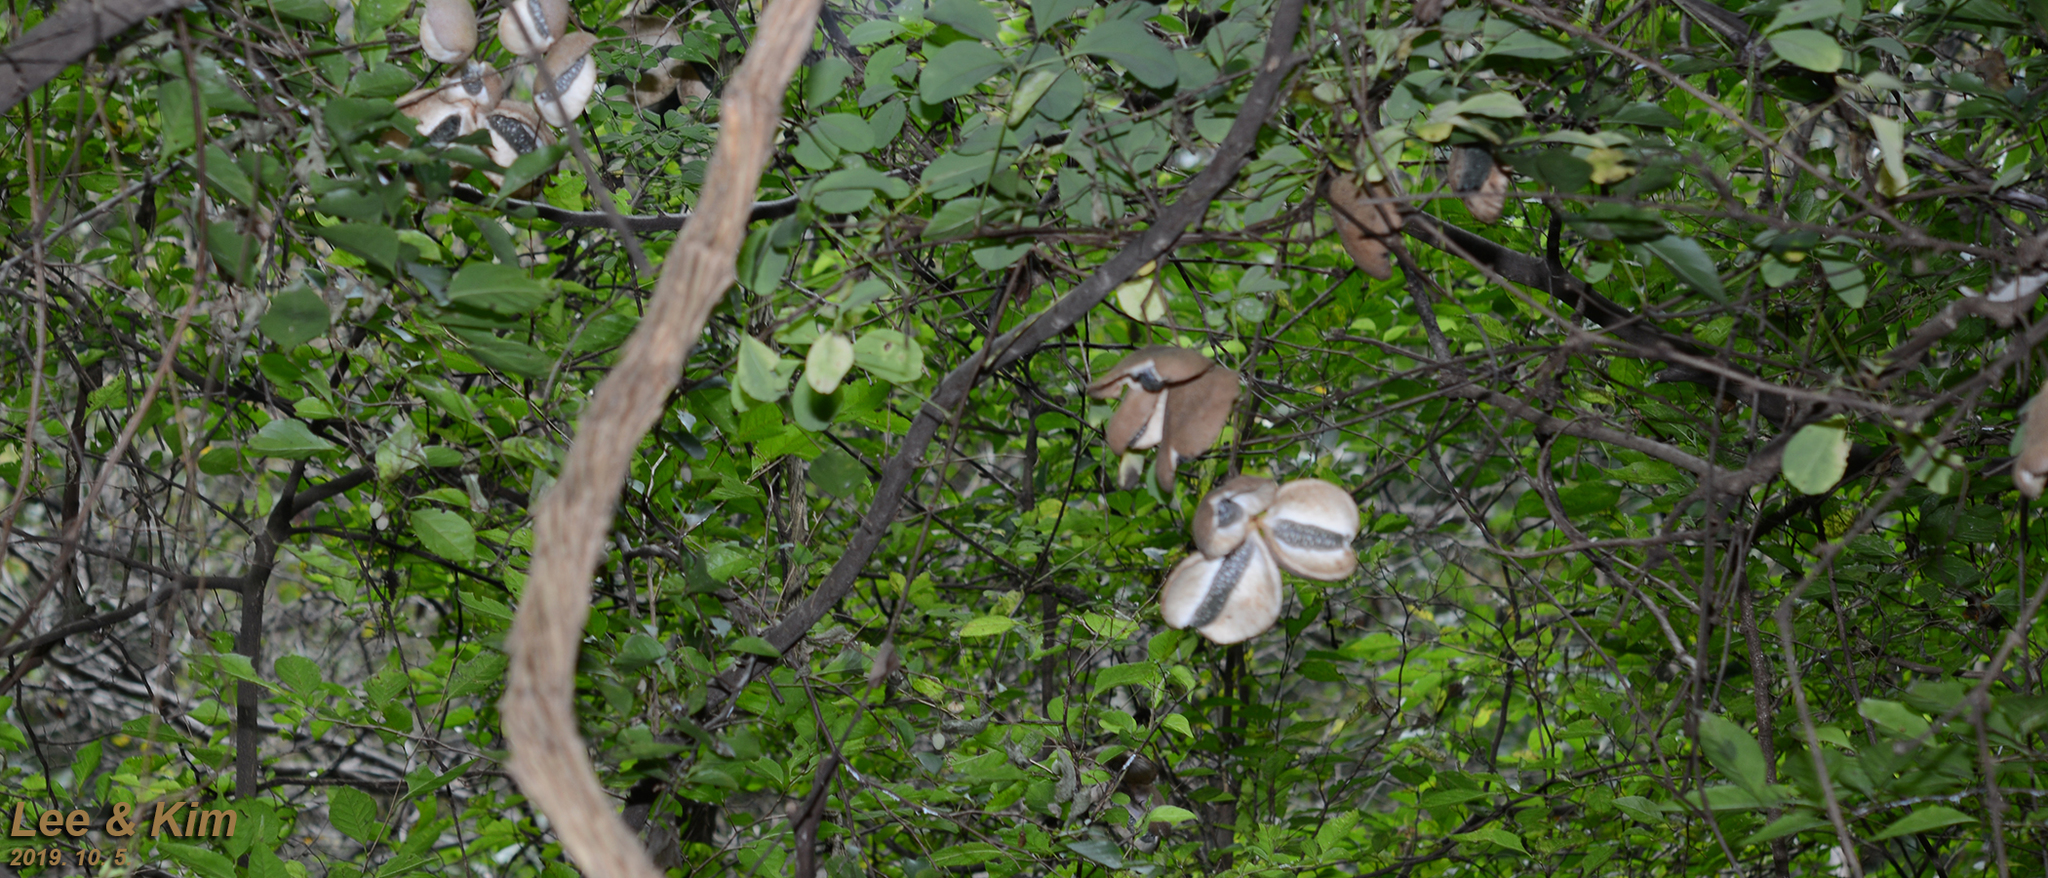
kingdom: Plantae
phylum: Tracheophyta
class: Magnoliopsida
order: Ranunculales
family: Lardizabalaceae
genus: Akebia
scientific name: Akebia quinata
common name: Five-leaf akebia
